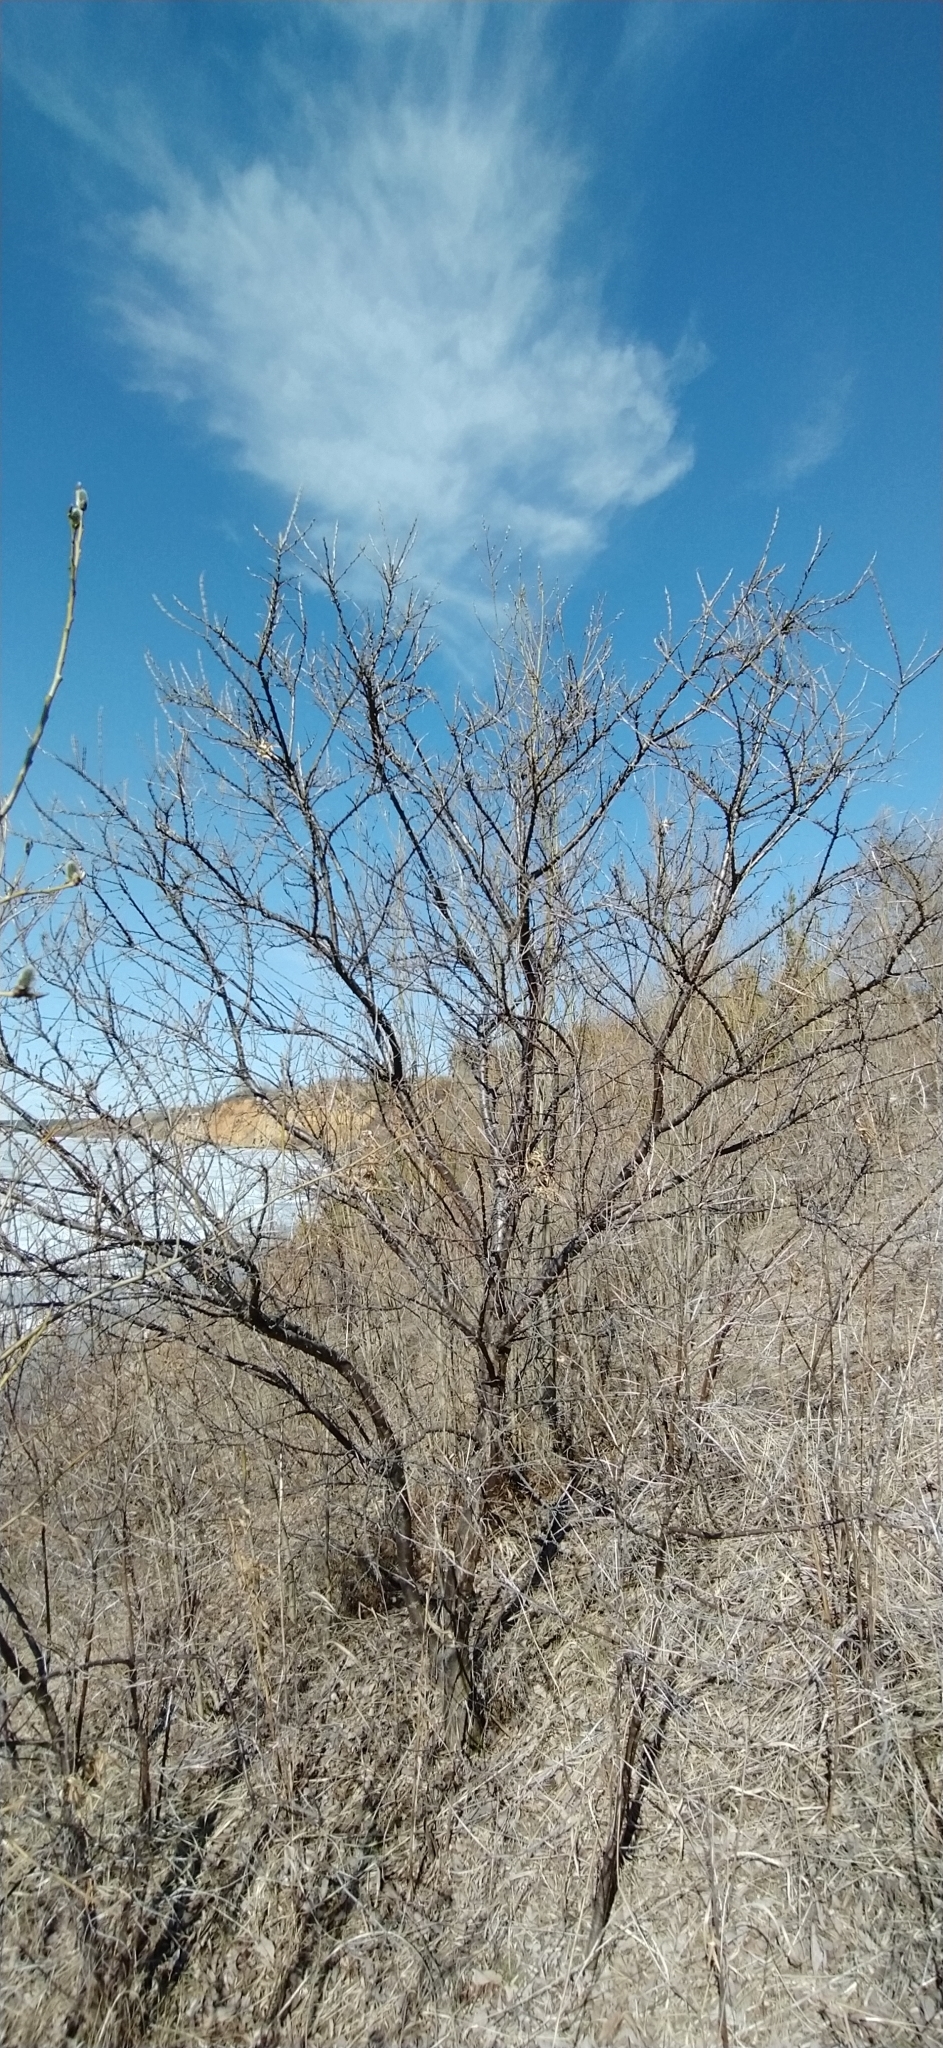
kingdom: Plantae
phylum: Tracheophyta
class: Magnoliopsida
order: Rosales
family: Elaeagnaceae
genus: Hippophae
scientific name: Hippophae rhamnoides
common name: Sea-buckthorn
